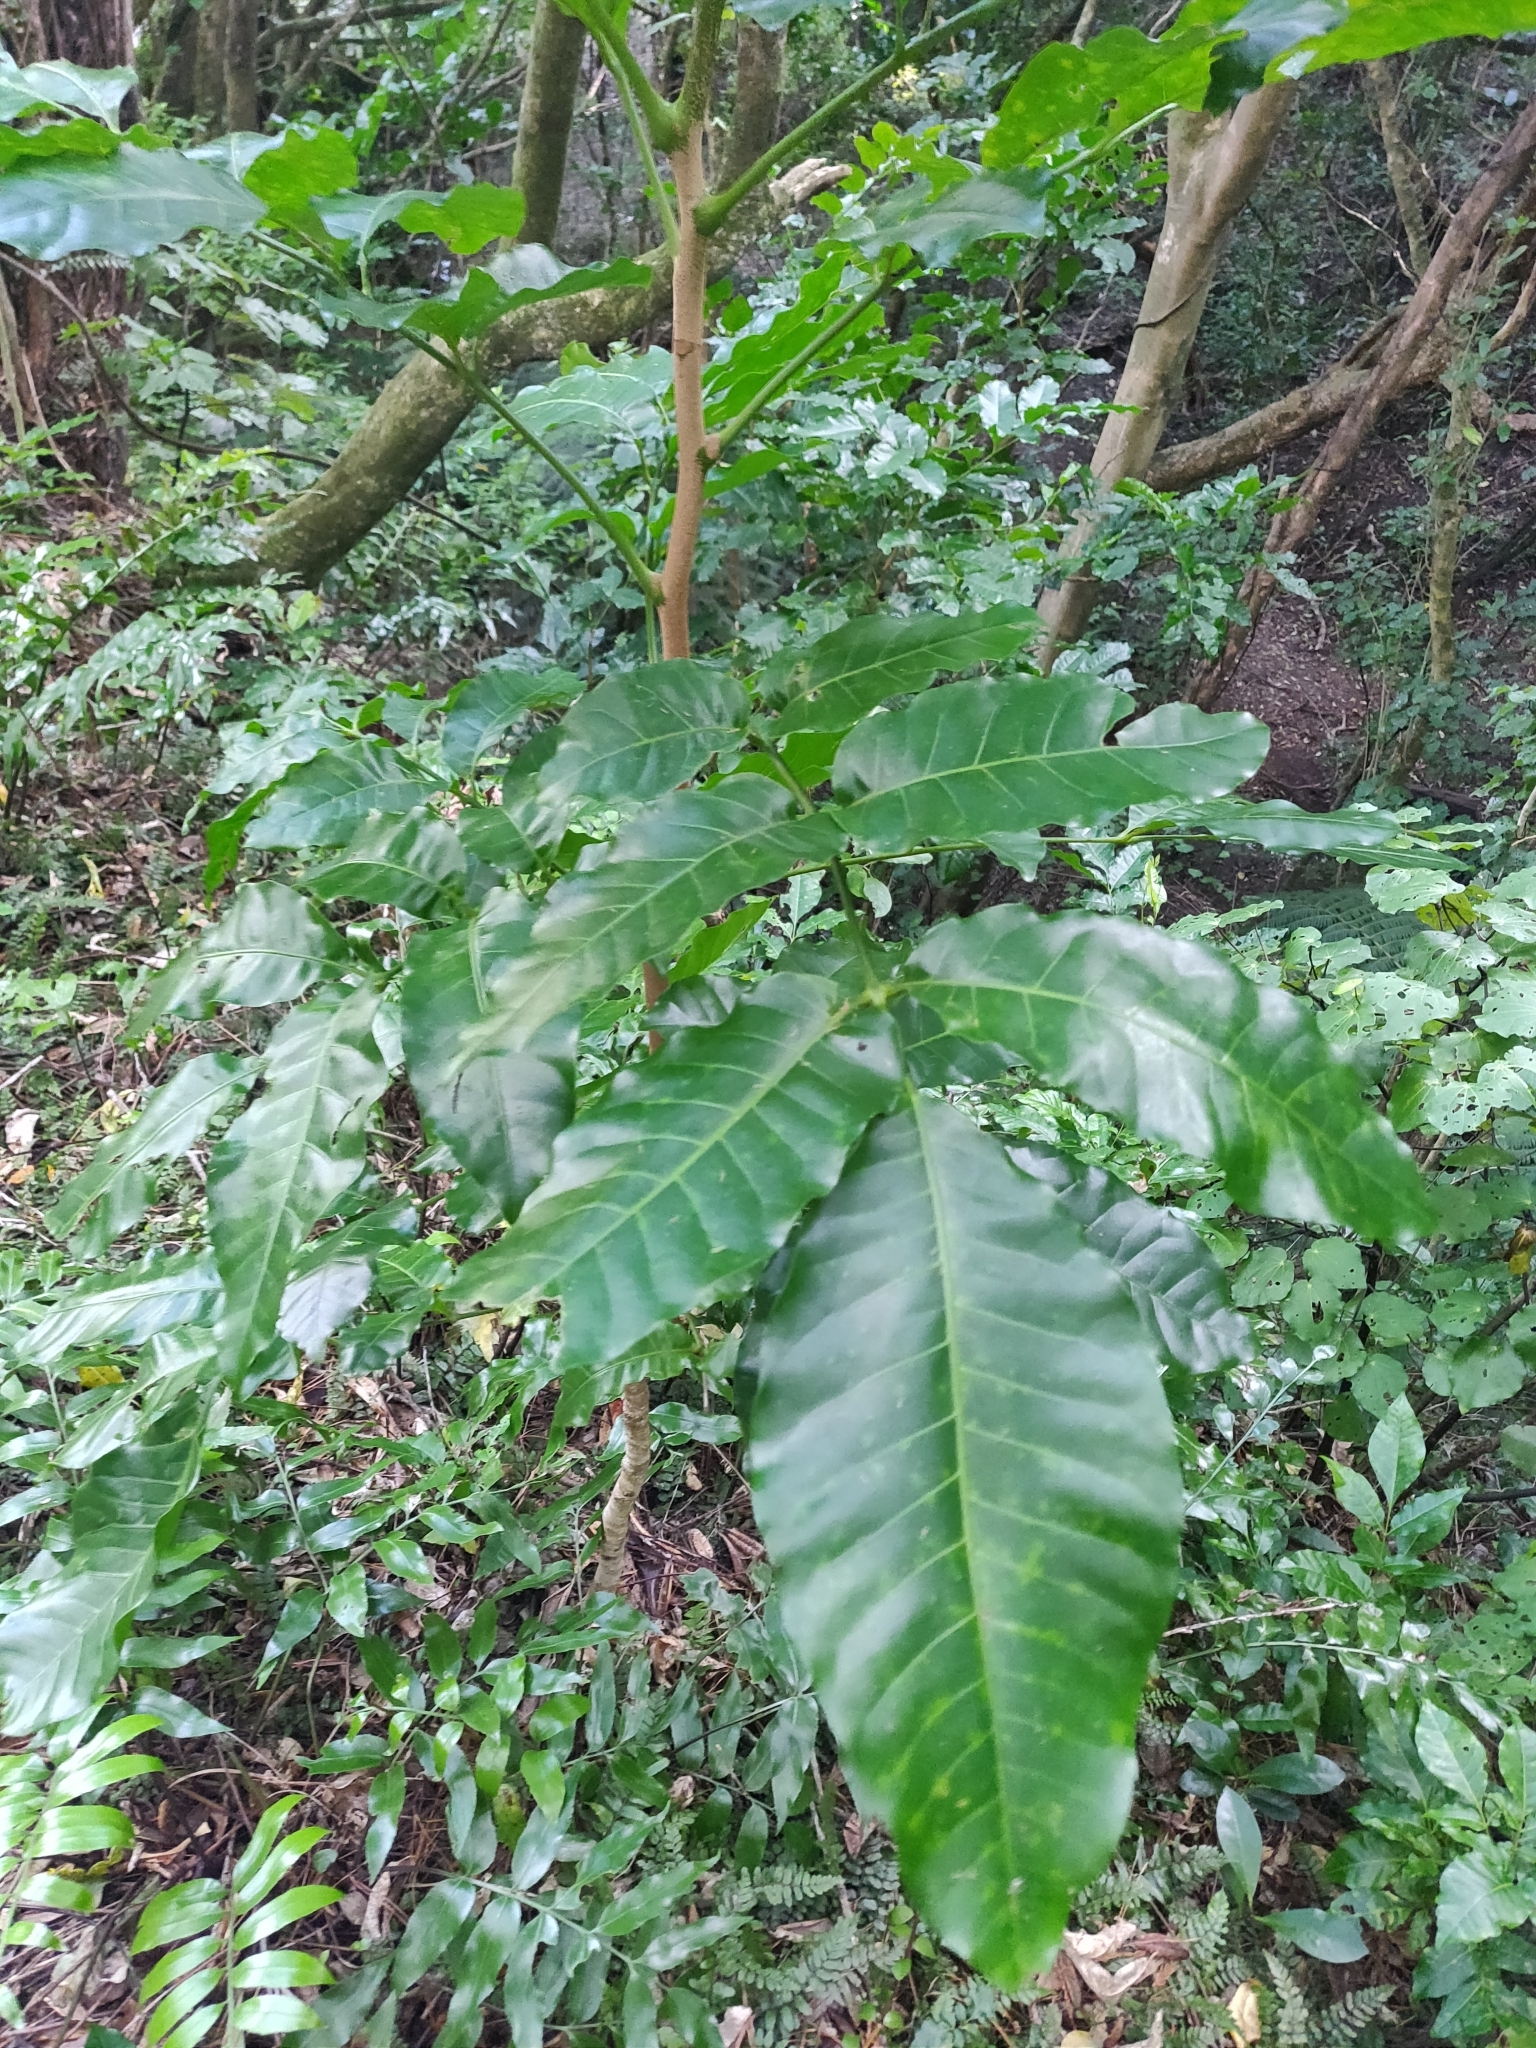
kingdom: Plantae
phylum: Tracheophyta
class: Magnoliopsida
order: Sapindales
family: Meliaceae
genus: Didymocheton
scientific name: Didymocheton spectabilis
